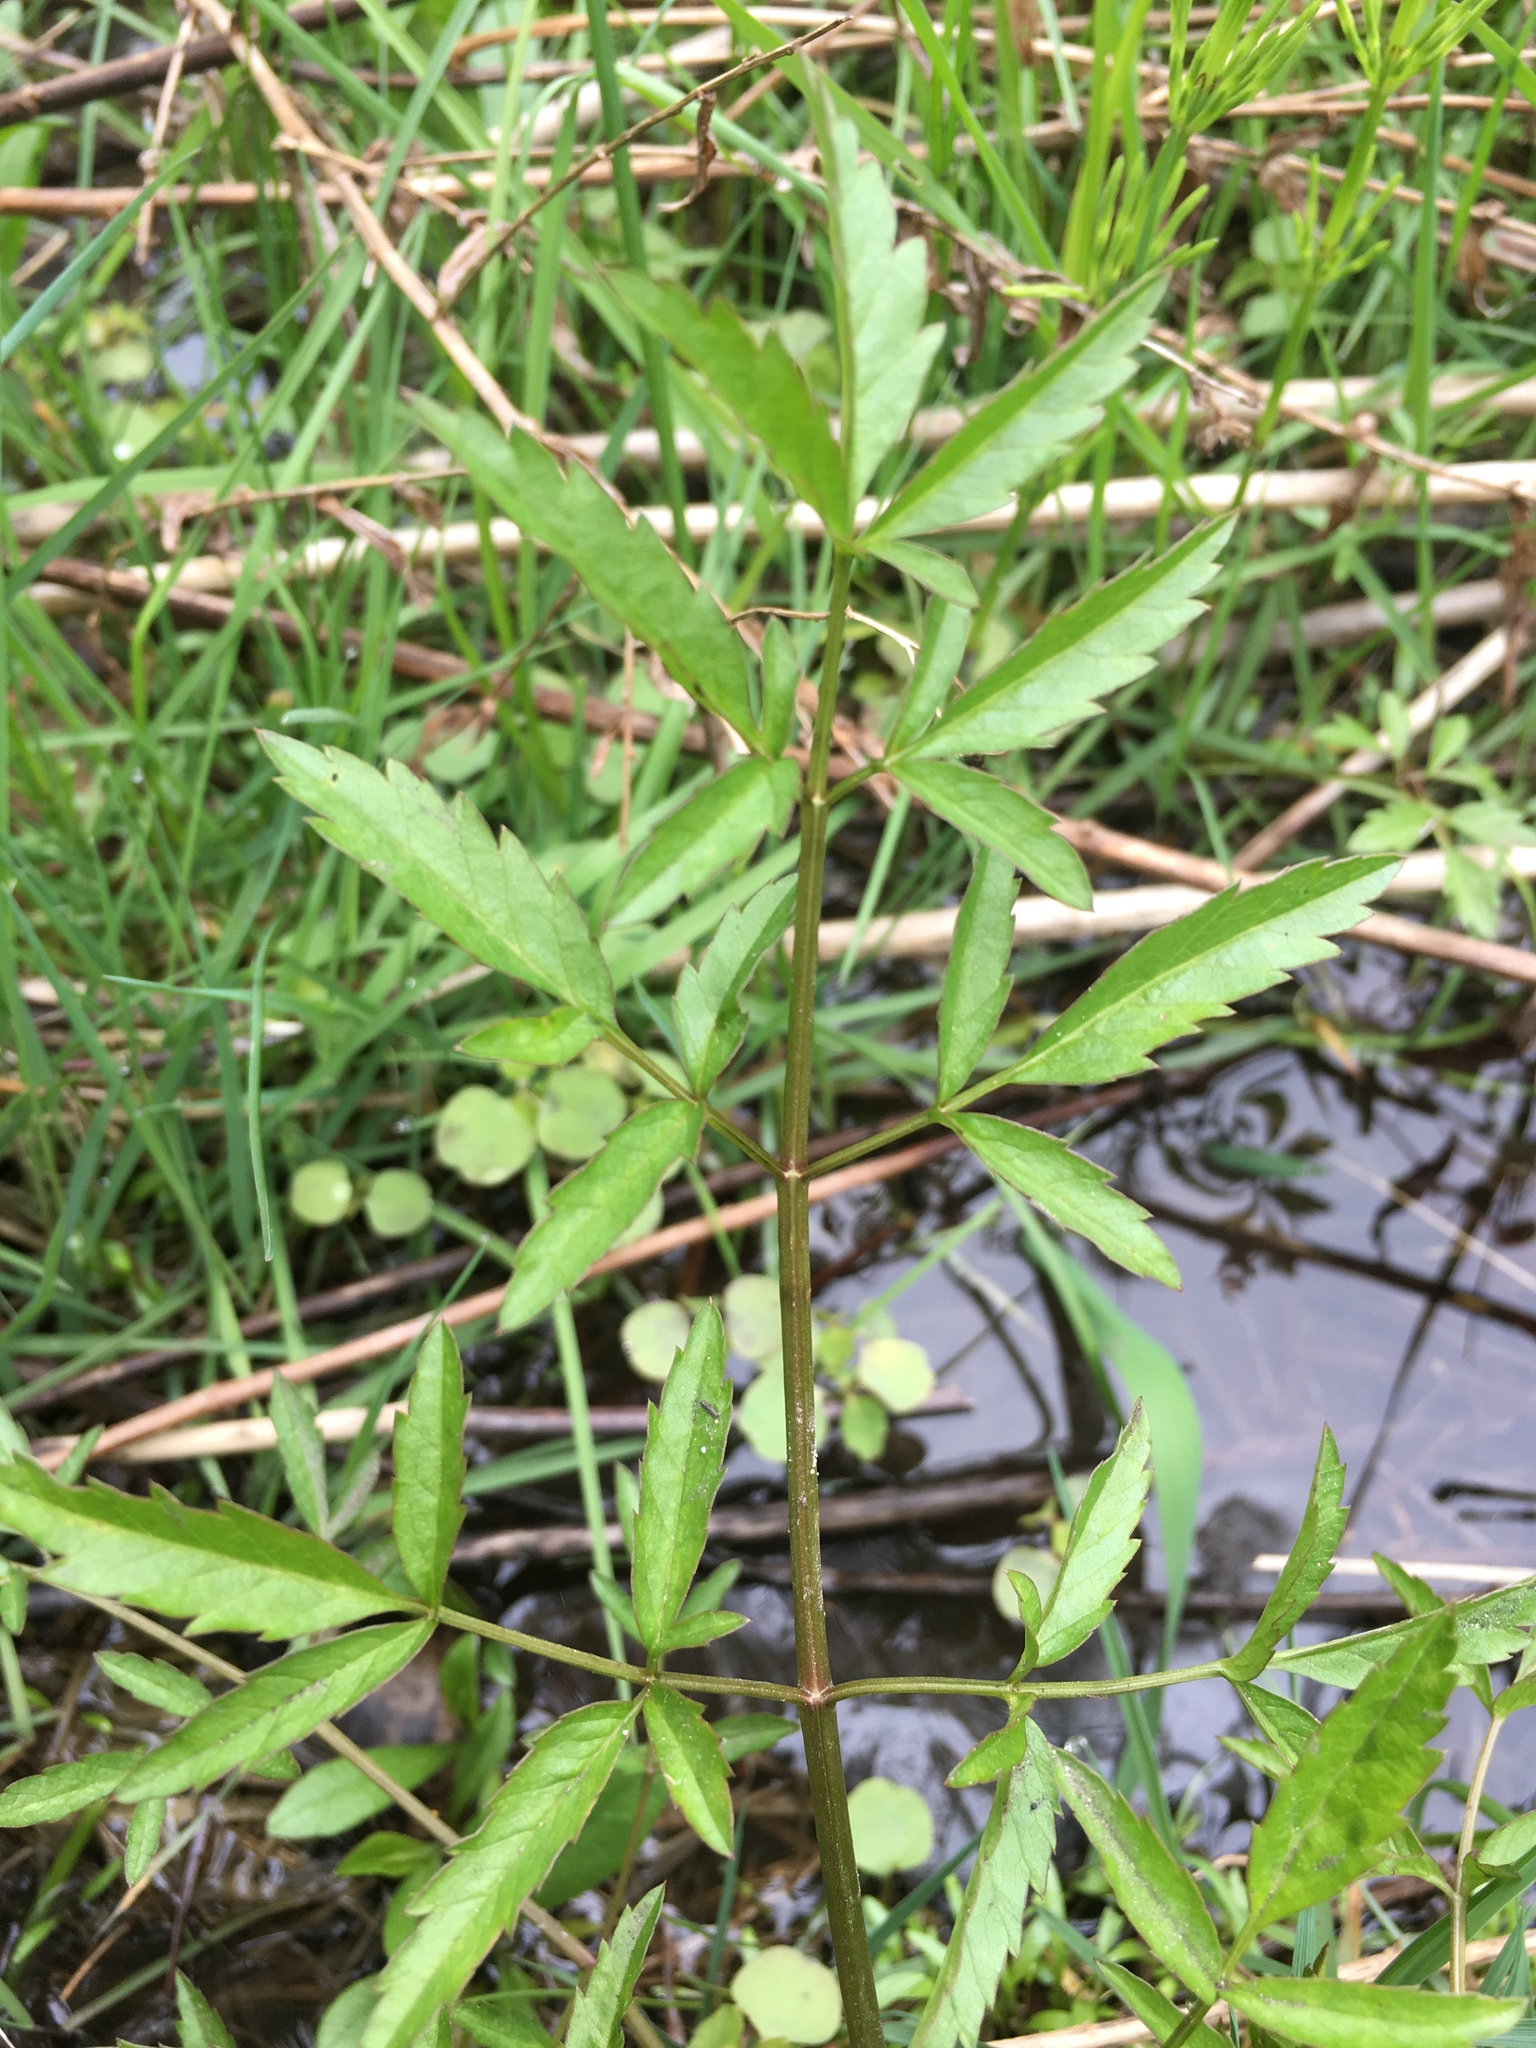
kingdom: Plantae
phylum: Tracheophyta
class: Magnoliopsida
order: Apiales
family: Apiaceae
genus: Cicuta
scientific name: Cicuta maculata
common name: Spotted cowbane
